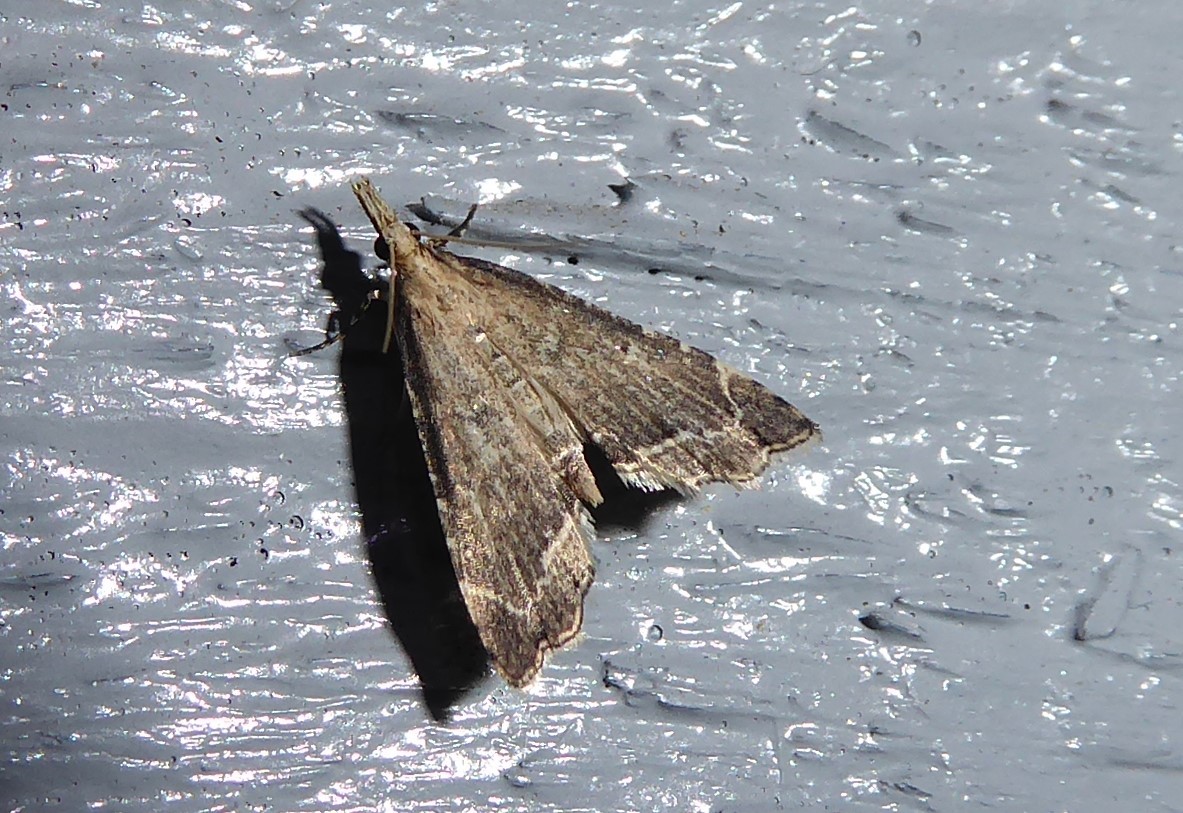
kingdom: Animalia
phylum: Arthropoda
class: Insecta
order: Lepidoptera
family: Crambidae
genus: Diplopseustis
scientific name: Diplopseustis perieresalis
